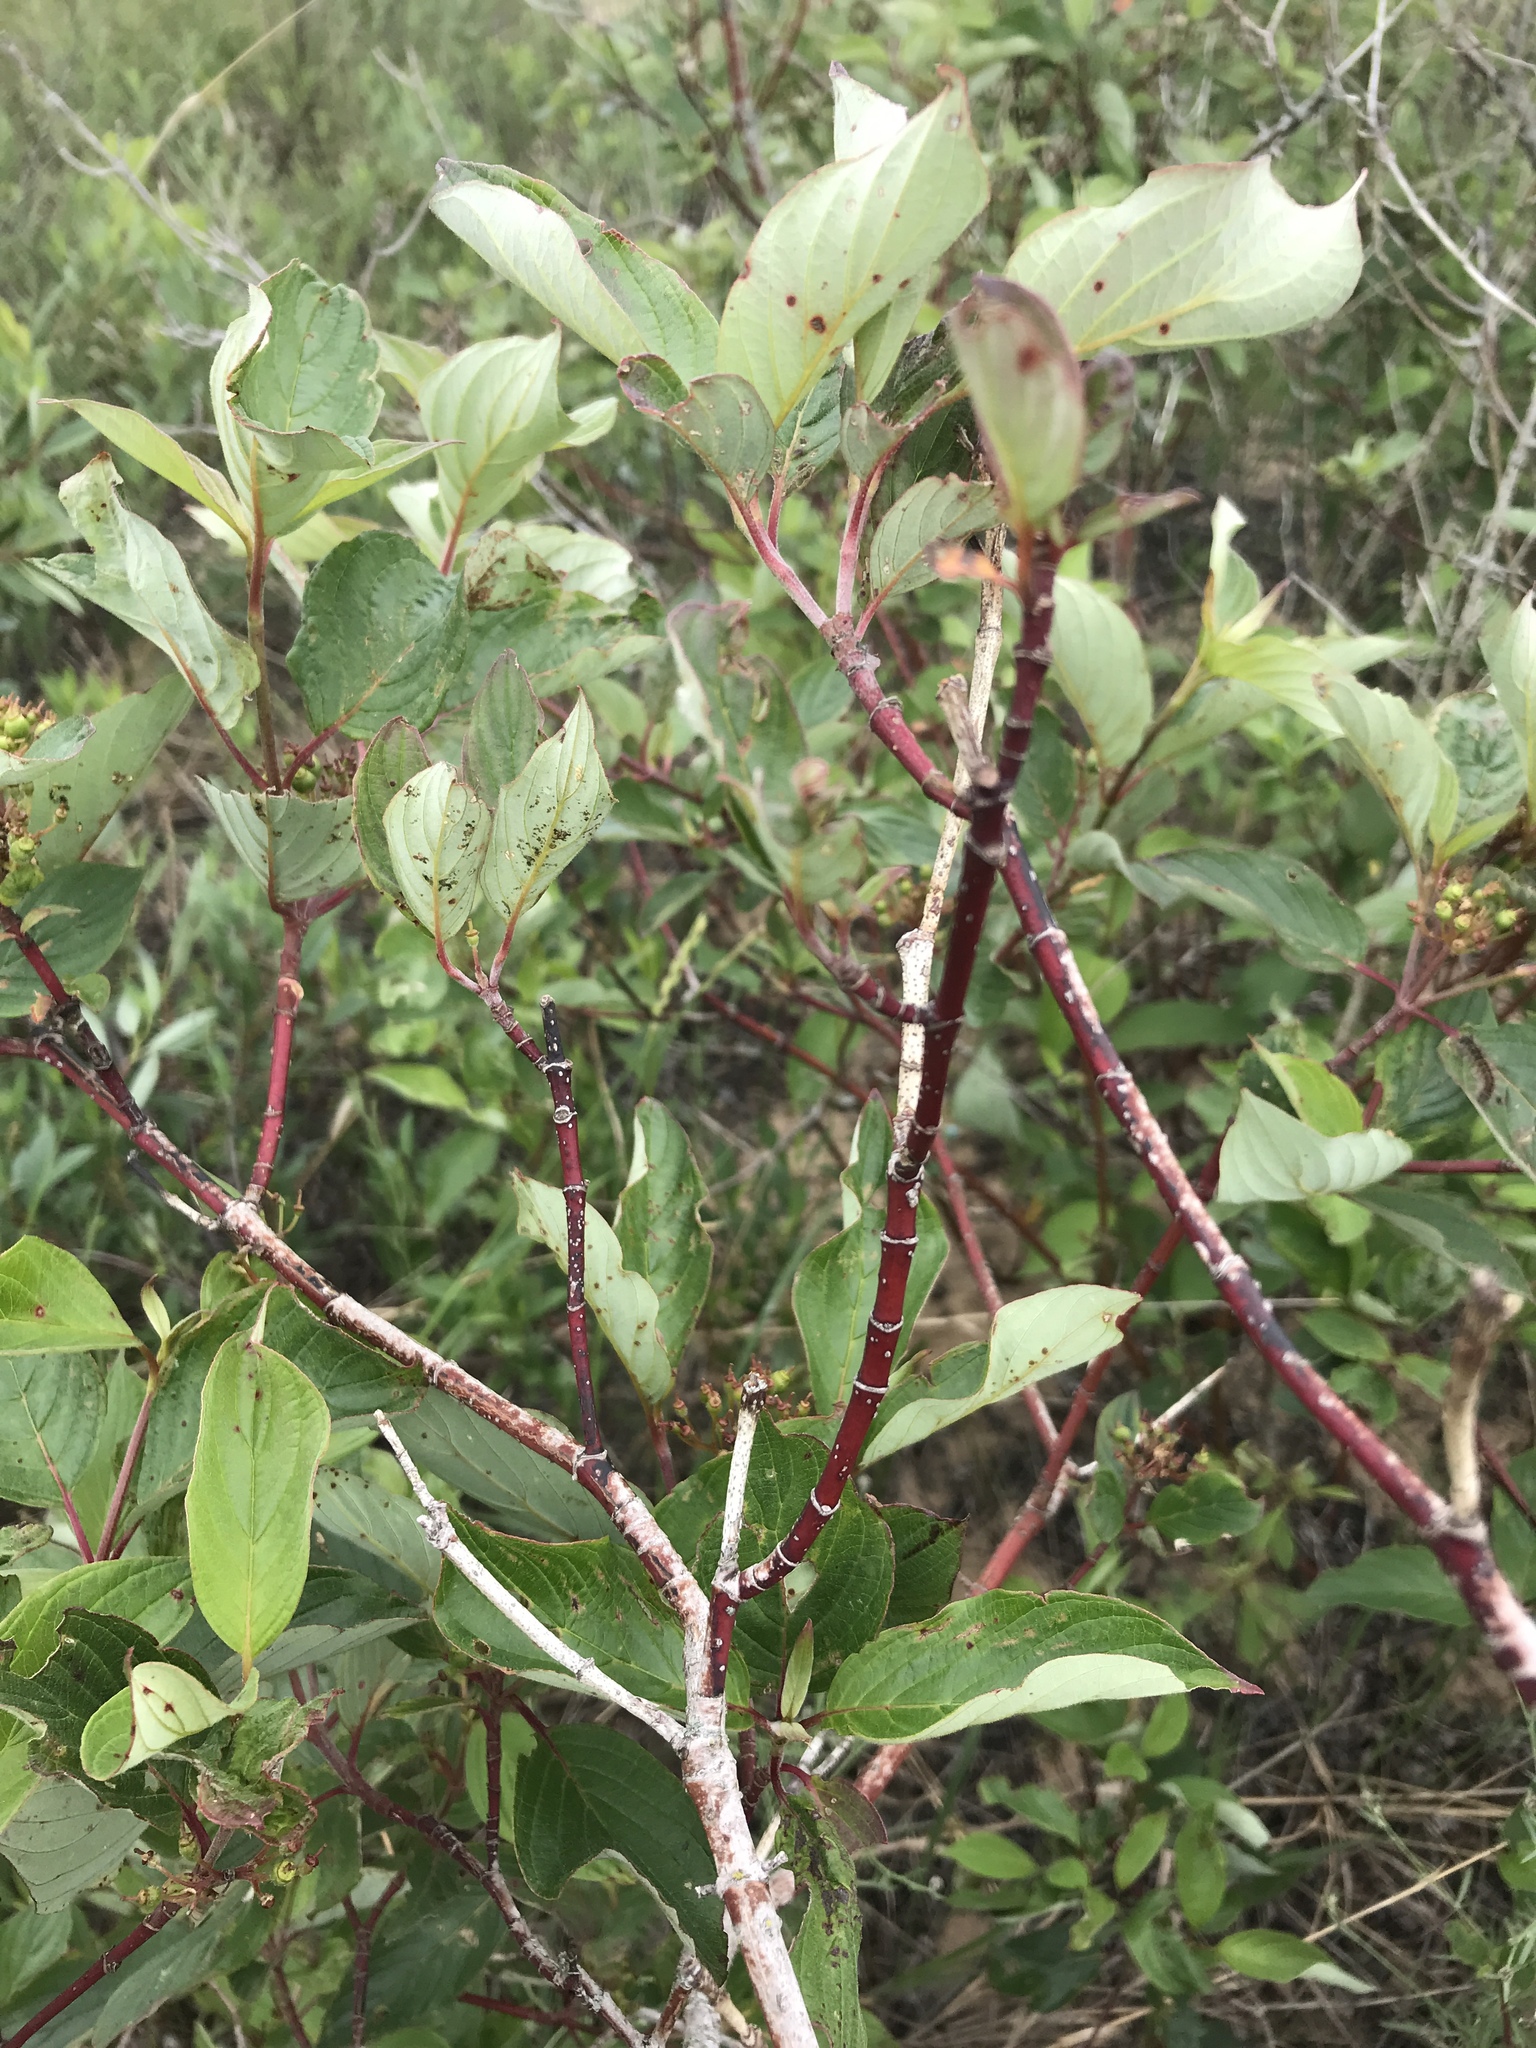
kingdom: Plantae
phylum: Tracheophyta
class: Magnoliopsida
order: Cornales
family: Cornaceae
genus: Cornus
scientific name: Cornus sericea
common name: Red-osier dogwood
